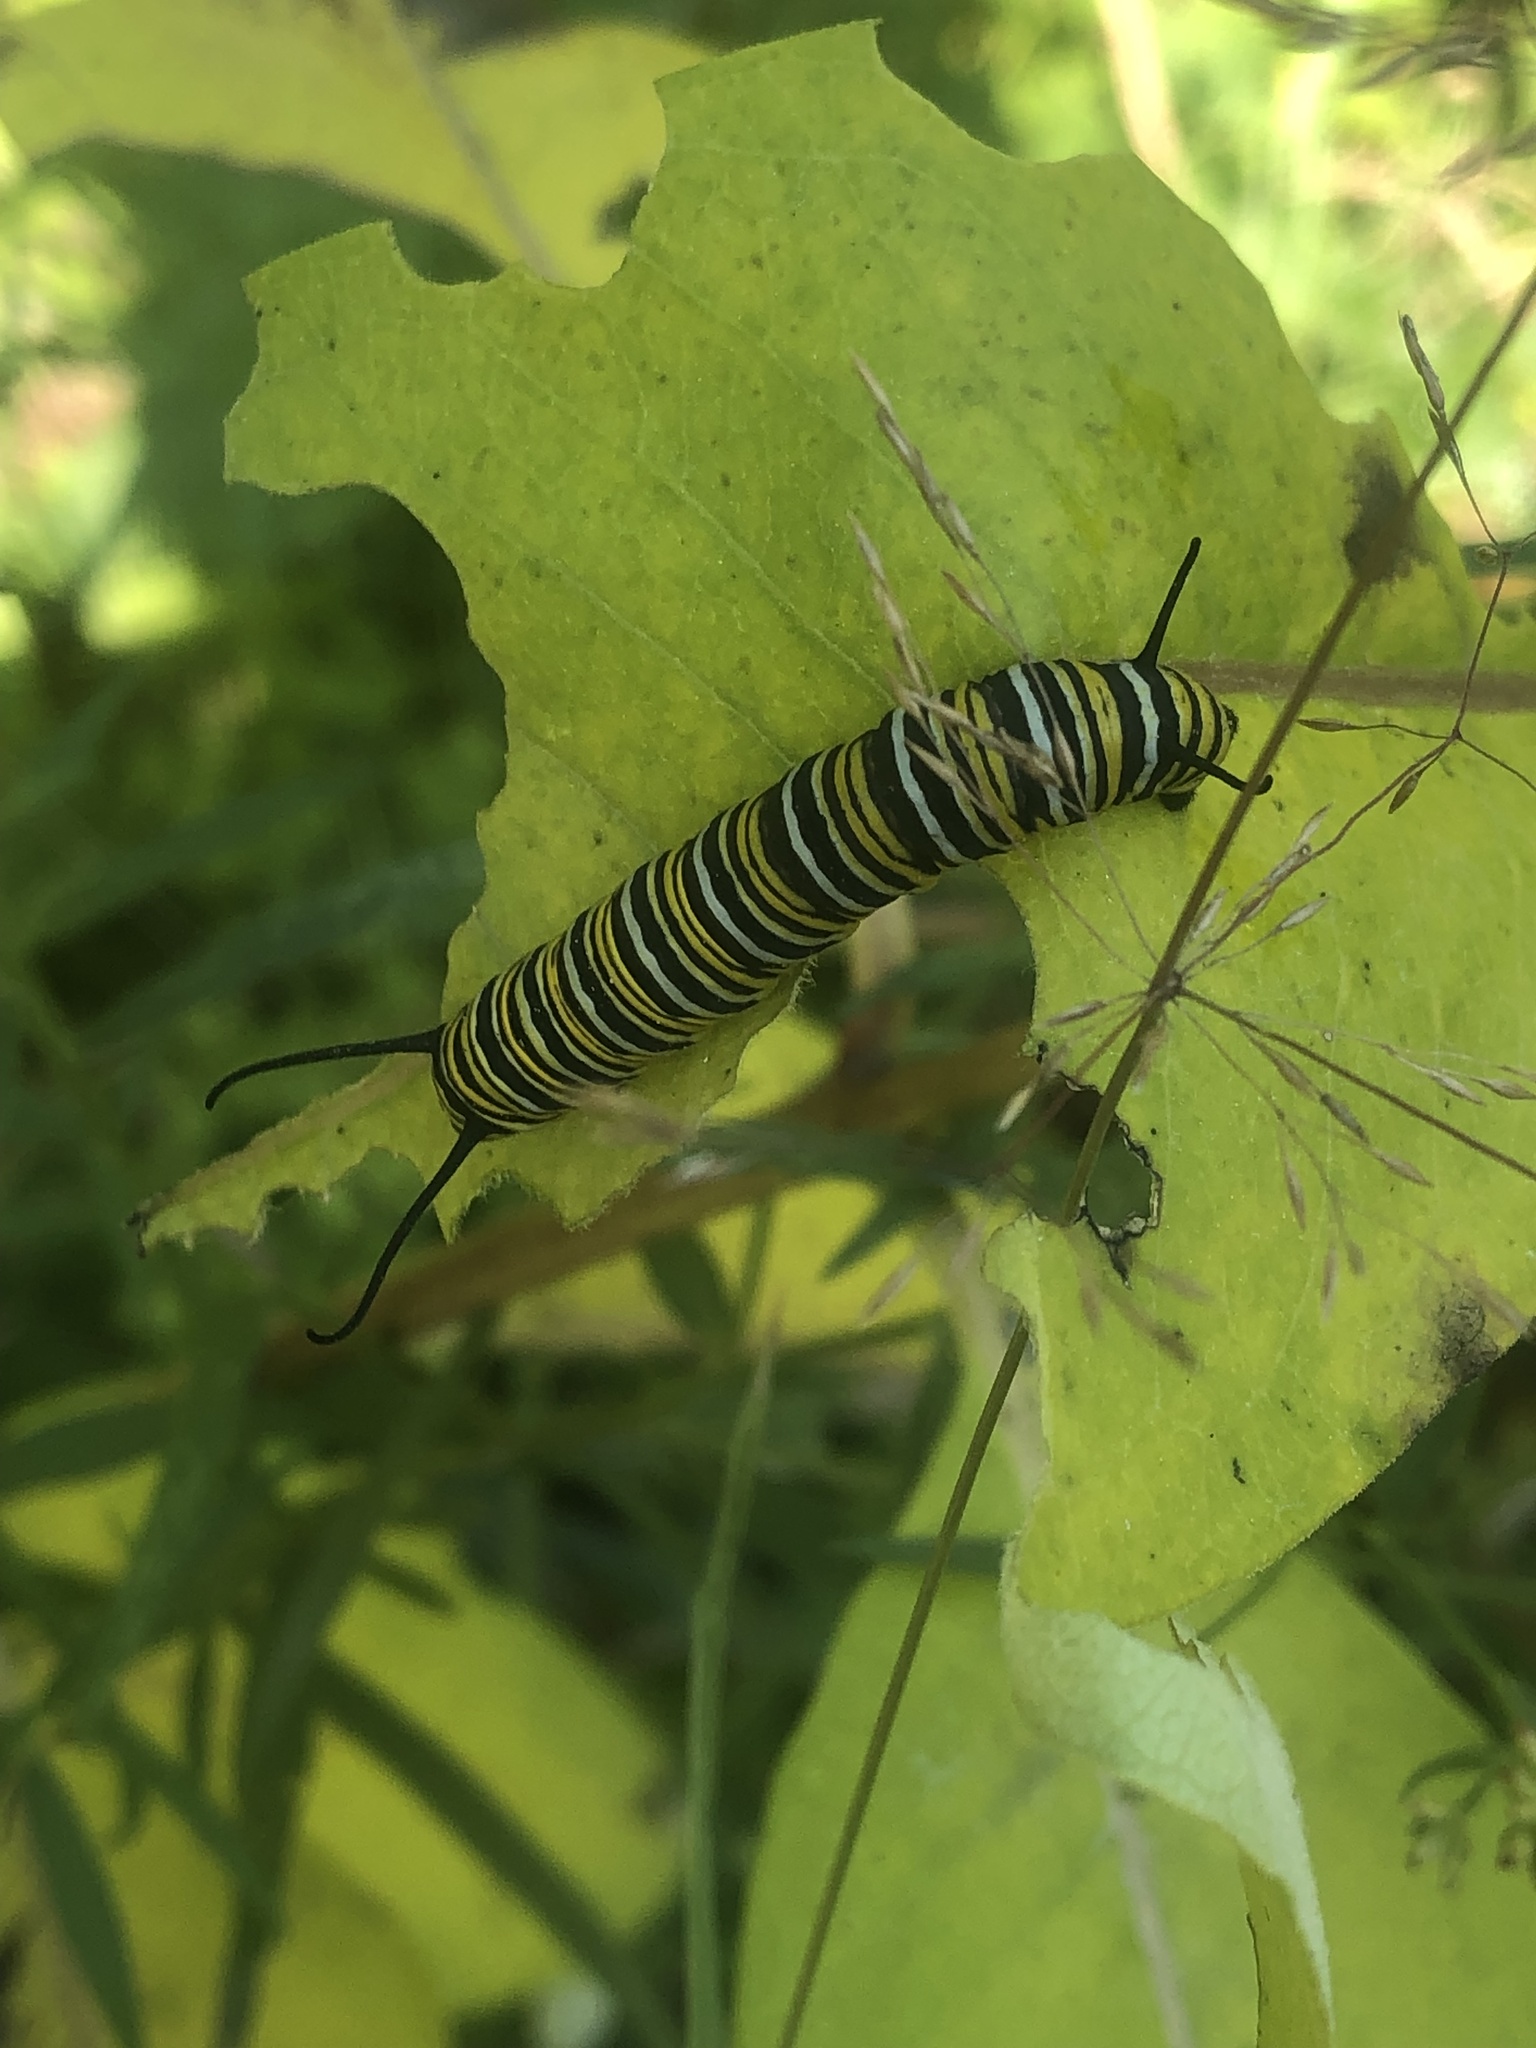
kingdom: Animalia
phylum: Arthropoda
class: Insecta
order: Lepidoptera
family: Nymphalidae
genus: Danaus
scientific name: Danaus plexippus
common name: Monarch
